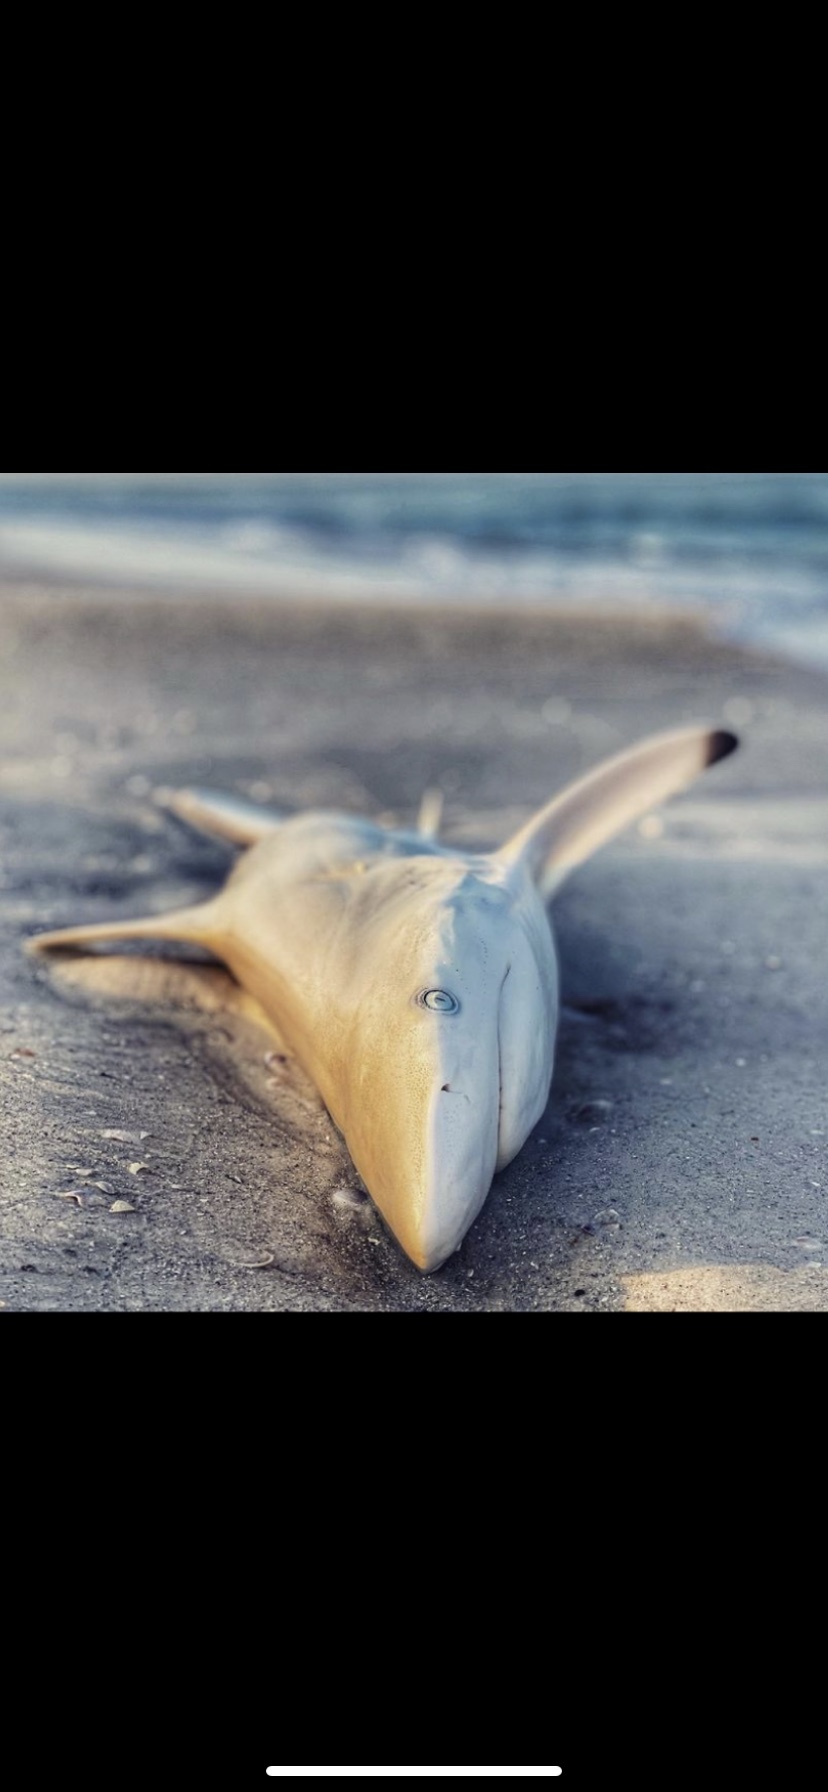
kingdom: Animalia
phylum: Chordata
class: Elasmobranchii
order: Carcharhiniformes
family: Carcharhinidae
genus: Carcharhinus
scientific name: Carcharhinus limbatus
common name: Blacktip shark
